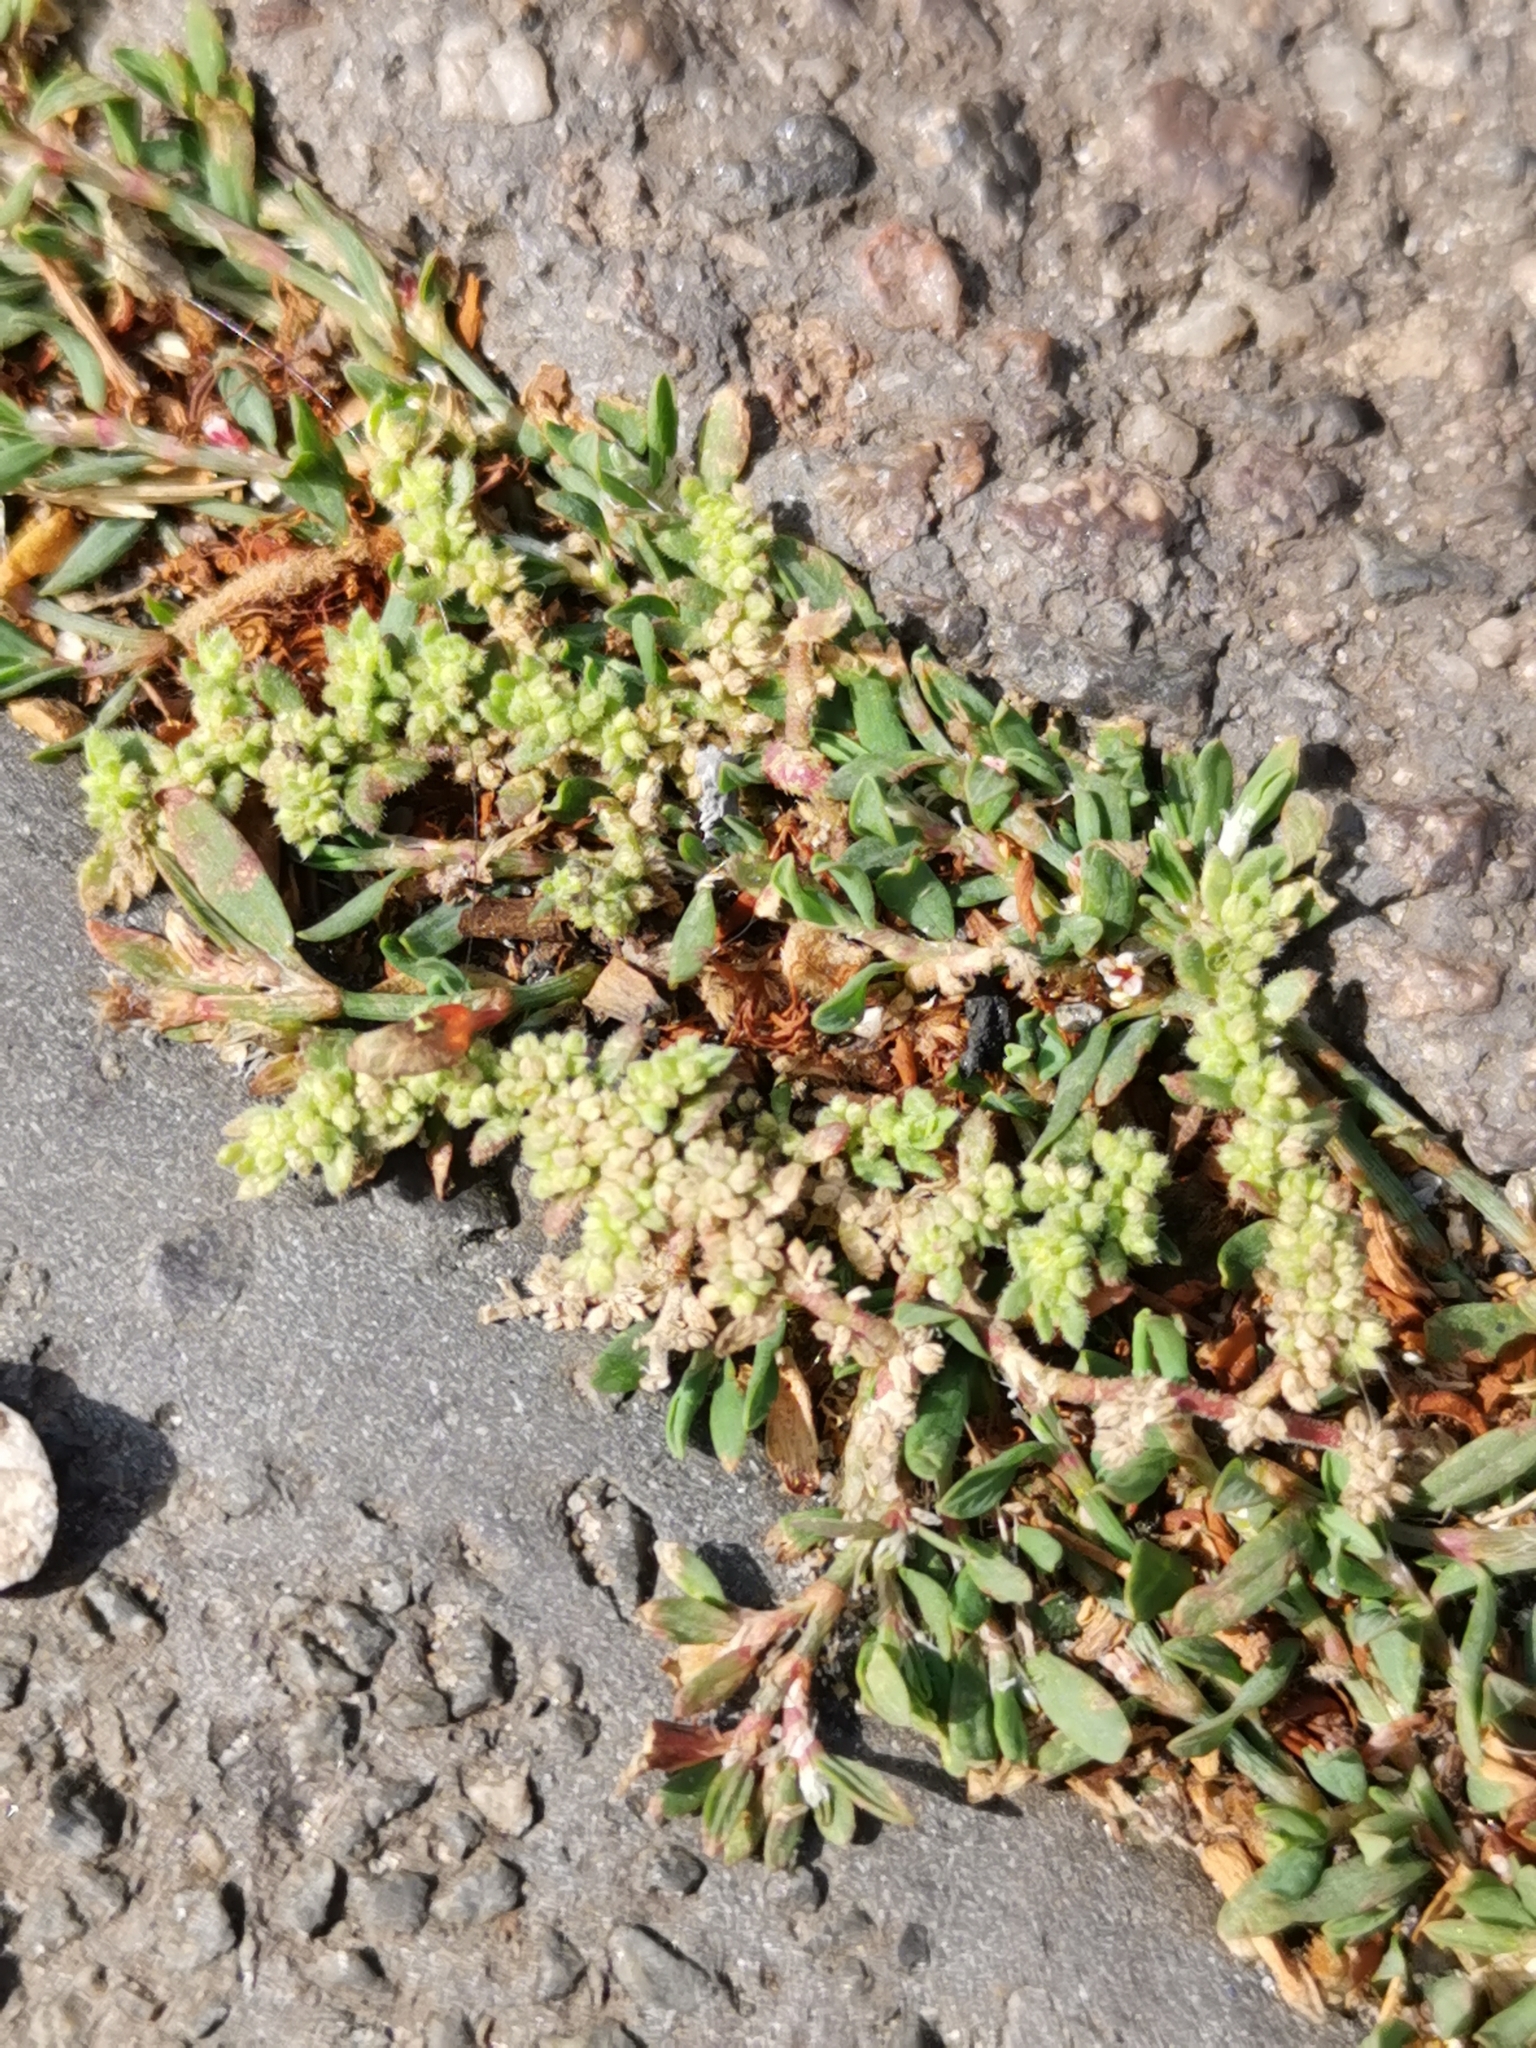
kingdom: Plantae
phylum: Tracheophyta
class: Magnoliopsida
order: Caryophyllales
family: Caryophyllaceae
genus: Herniaria
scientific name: Herniaria glabra
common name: Smooth rupturewort
